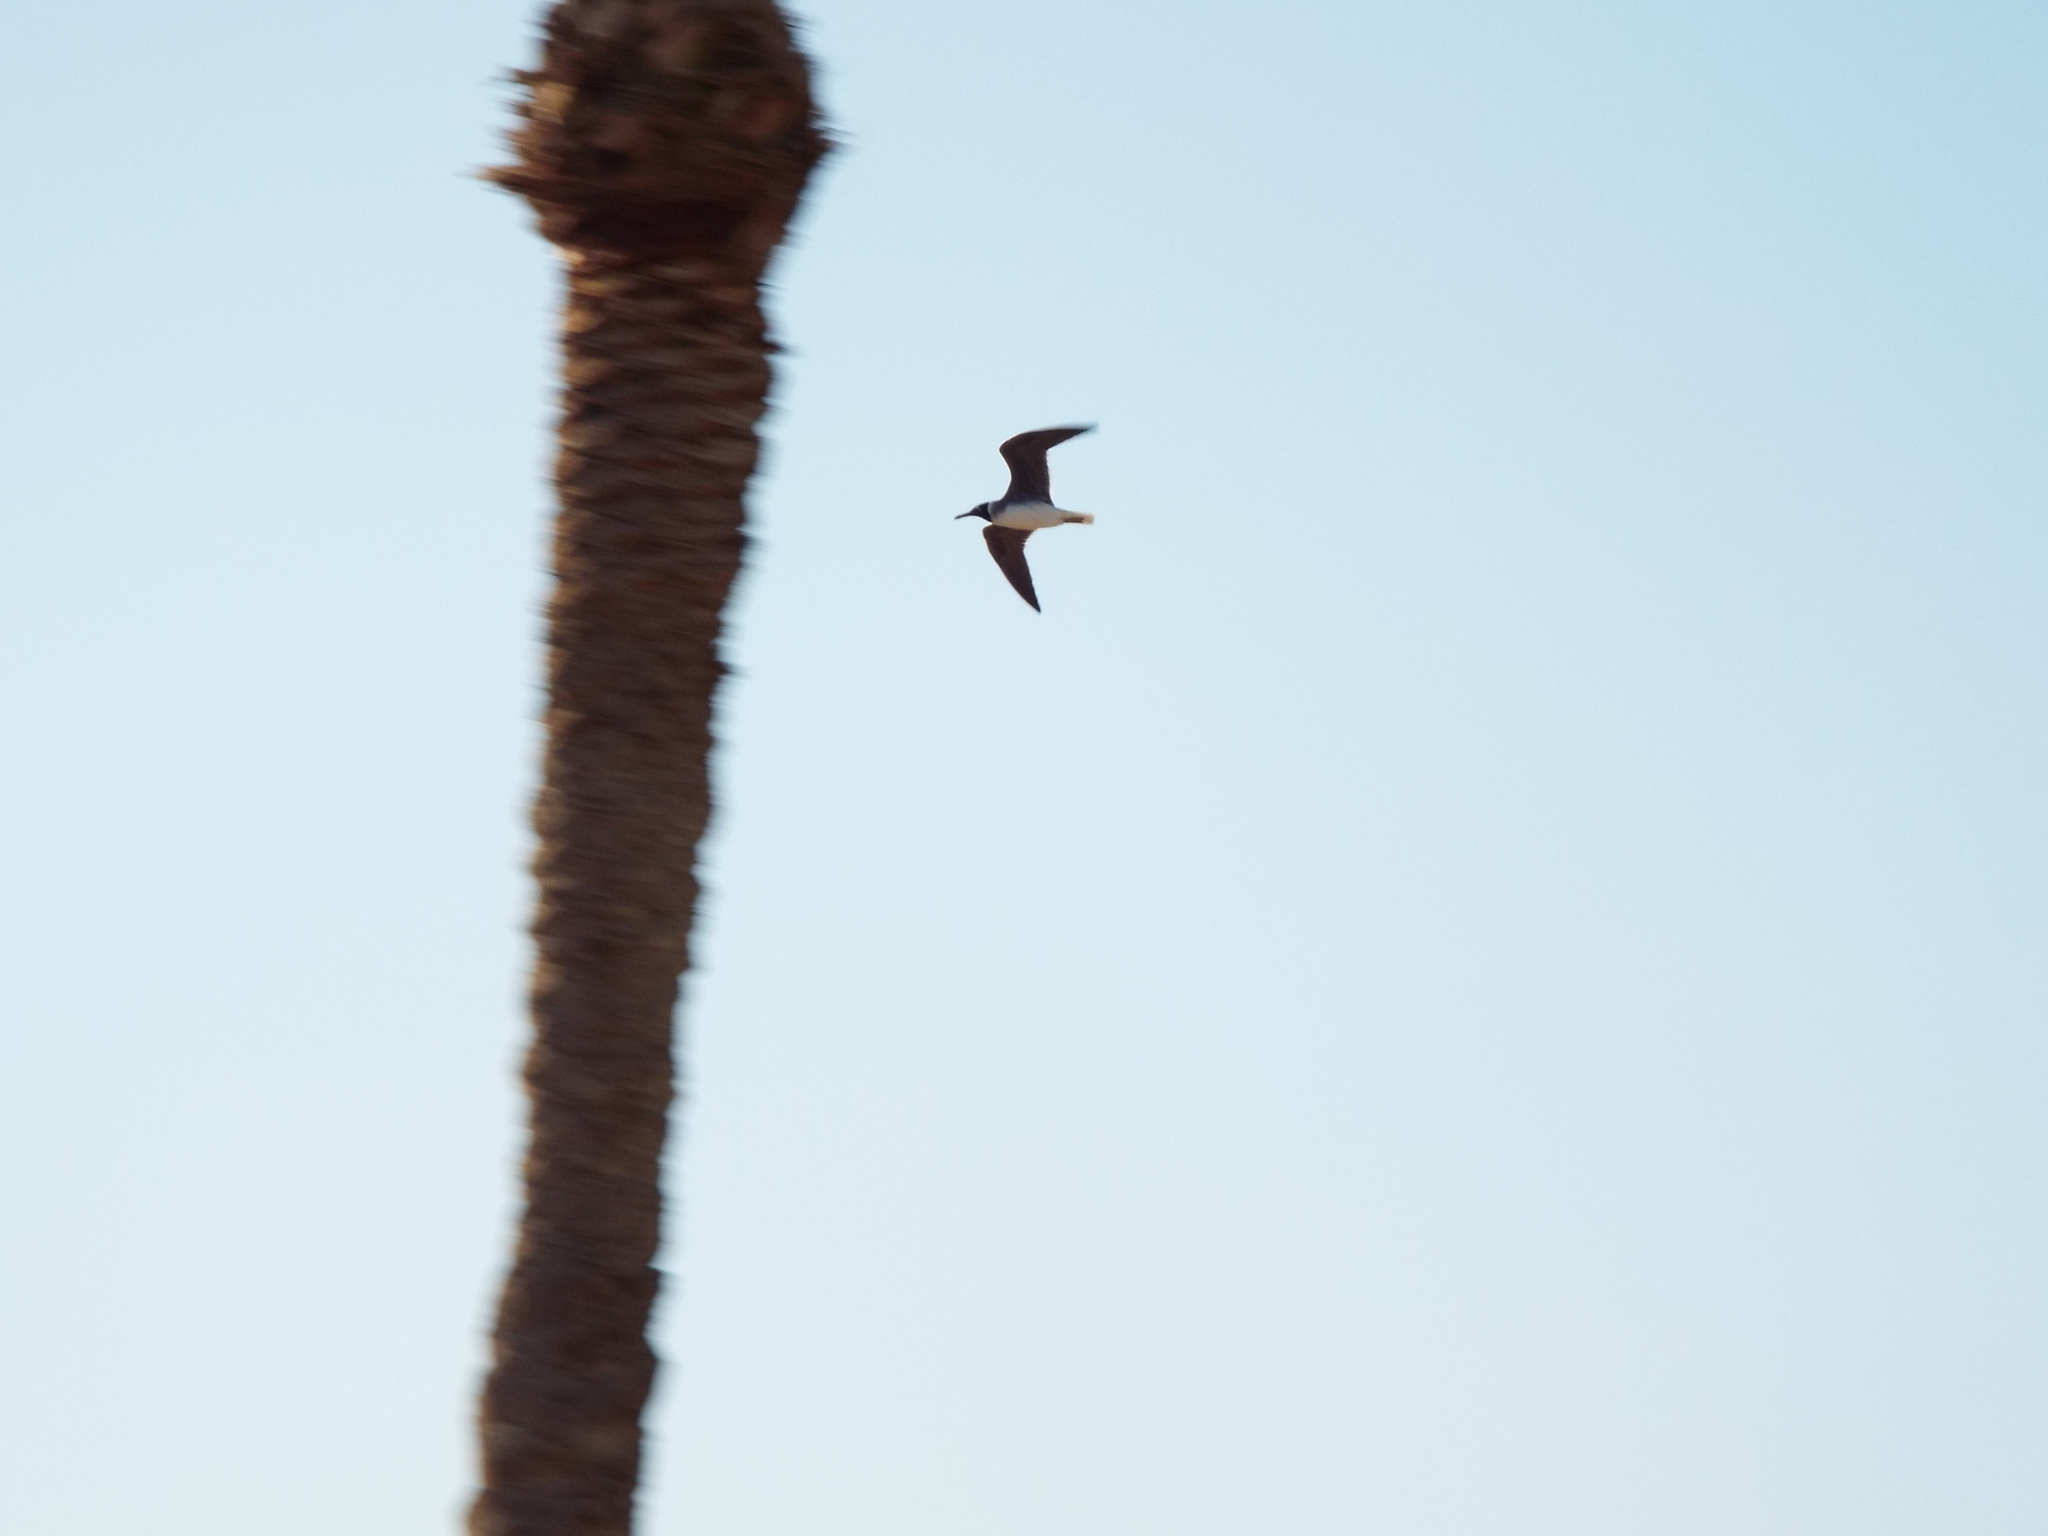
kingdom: Animalia
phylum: Chordata
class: Aves
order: Charadriiformes
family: Laridae
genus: Ichthyaetus
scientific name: Ichthyaetus leucophthalmus
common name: White-eyed gull
